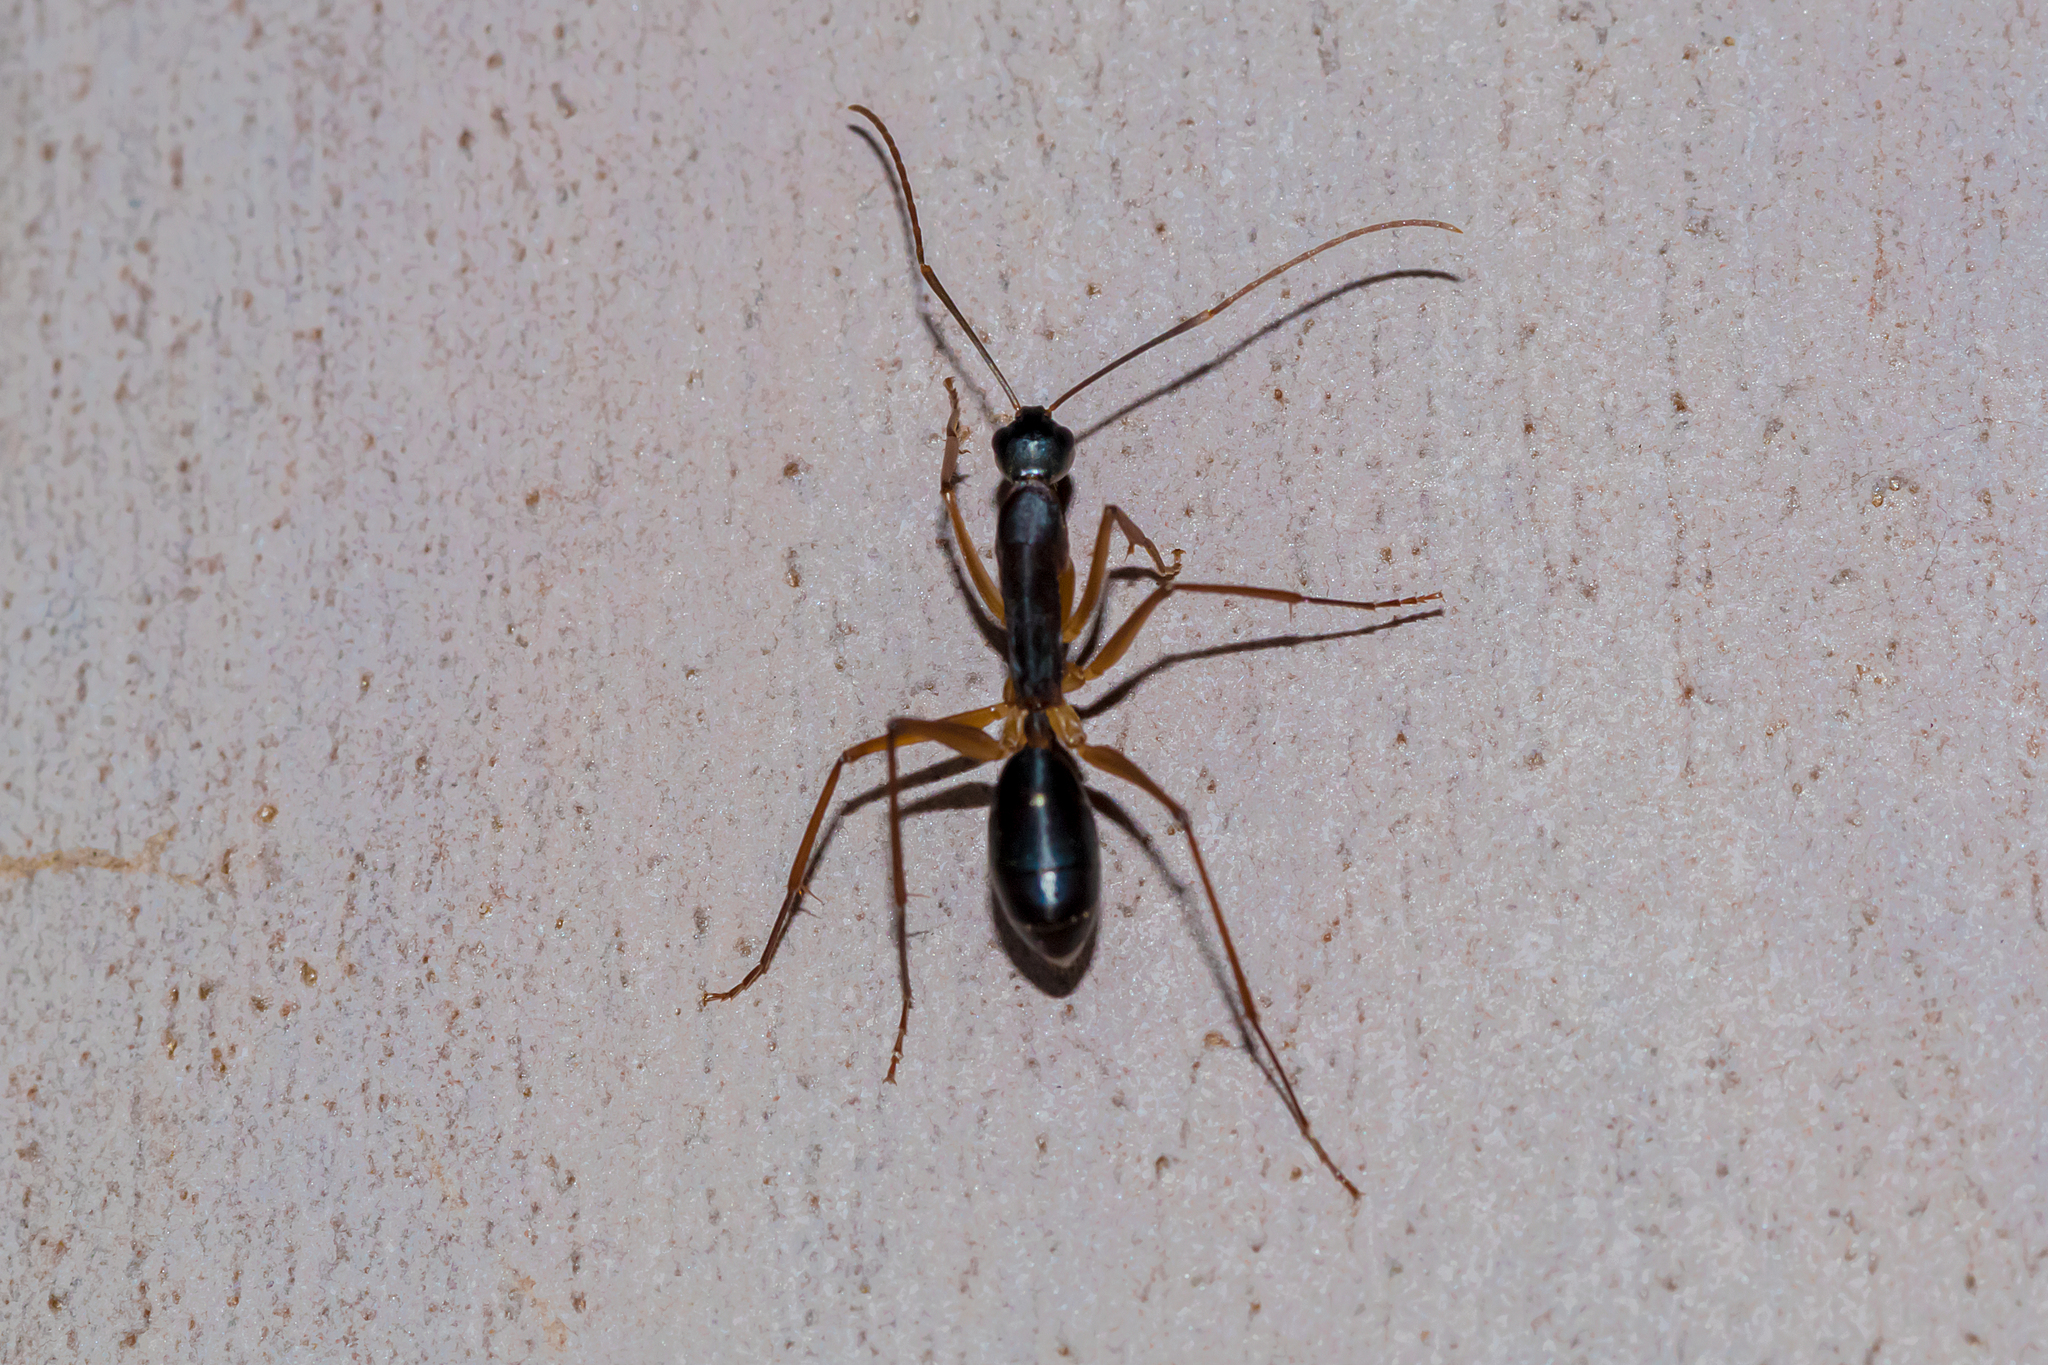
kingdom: Animalia
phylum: Arthropoda
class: Insecta
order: Hymenoptera
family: Formicidae
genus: Camponotus
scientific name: Camponotus subnitidus
